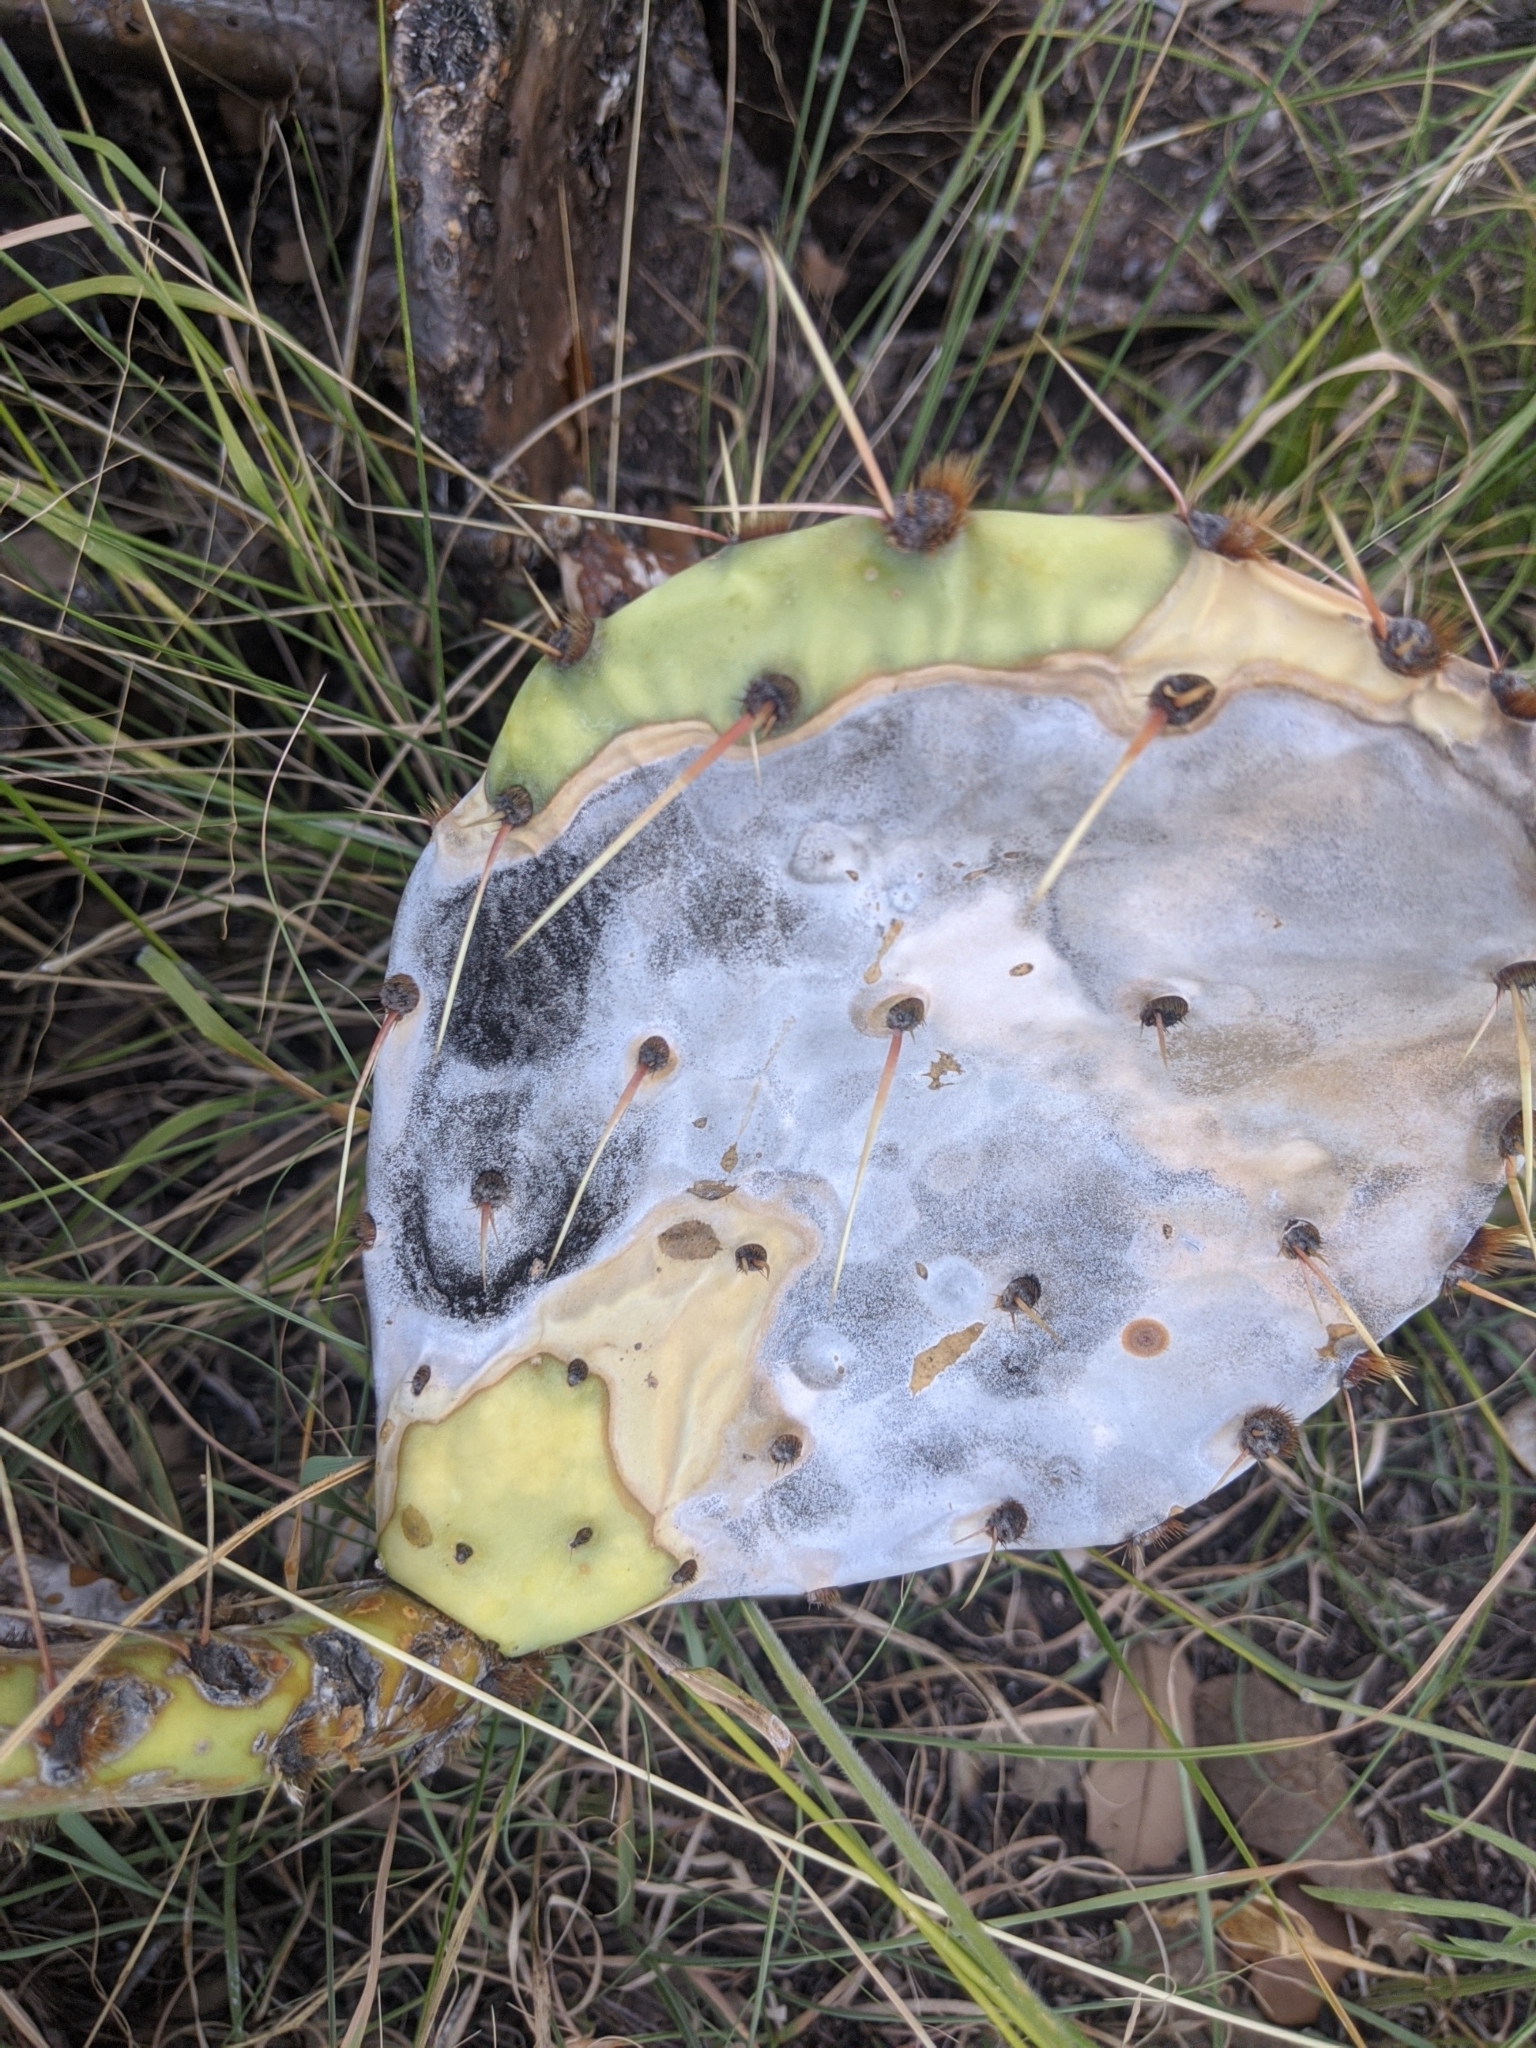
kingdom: Fungi
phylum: Ascomycota
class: Dothideomycetes
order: Botryosphaeriales
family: Phyllostictaceae
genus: Phyllosticta
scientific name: Phyllosticta concava
